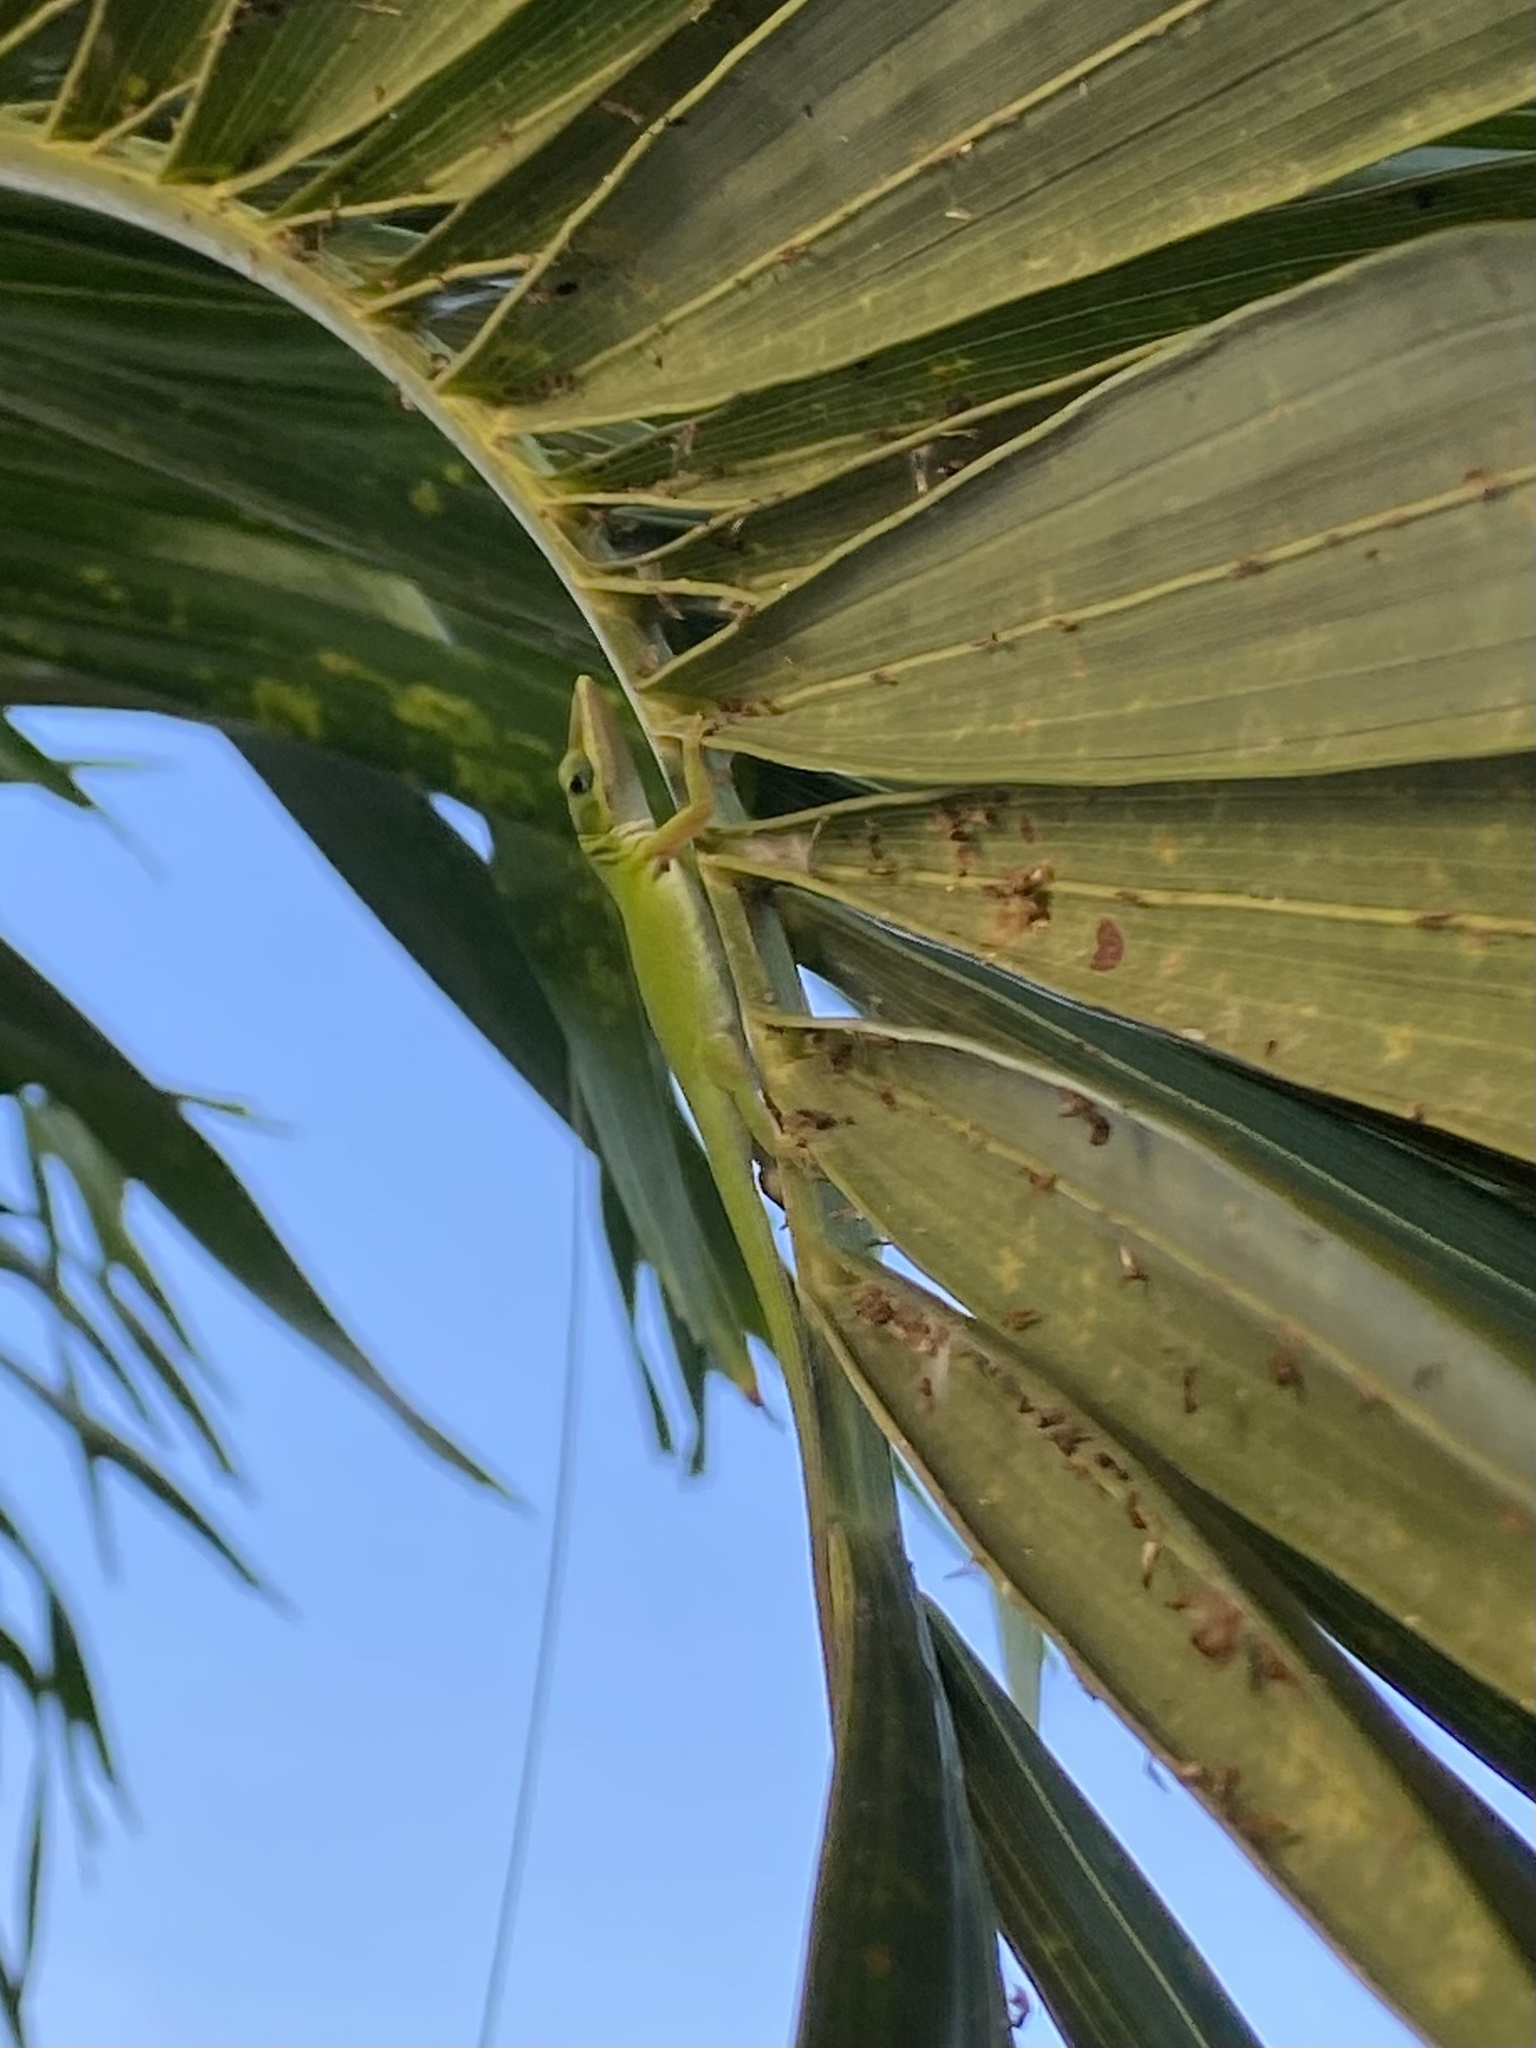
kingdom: Animalia
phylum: Chordata
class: Squamata
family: Dactyloidae
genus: Anolis
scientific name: Anolis carolinensis
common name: Green anole
